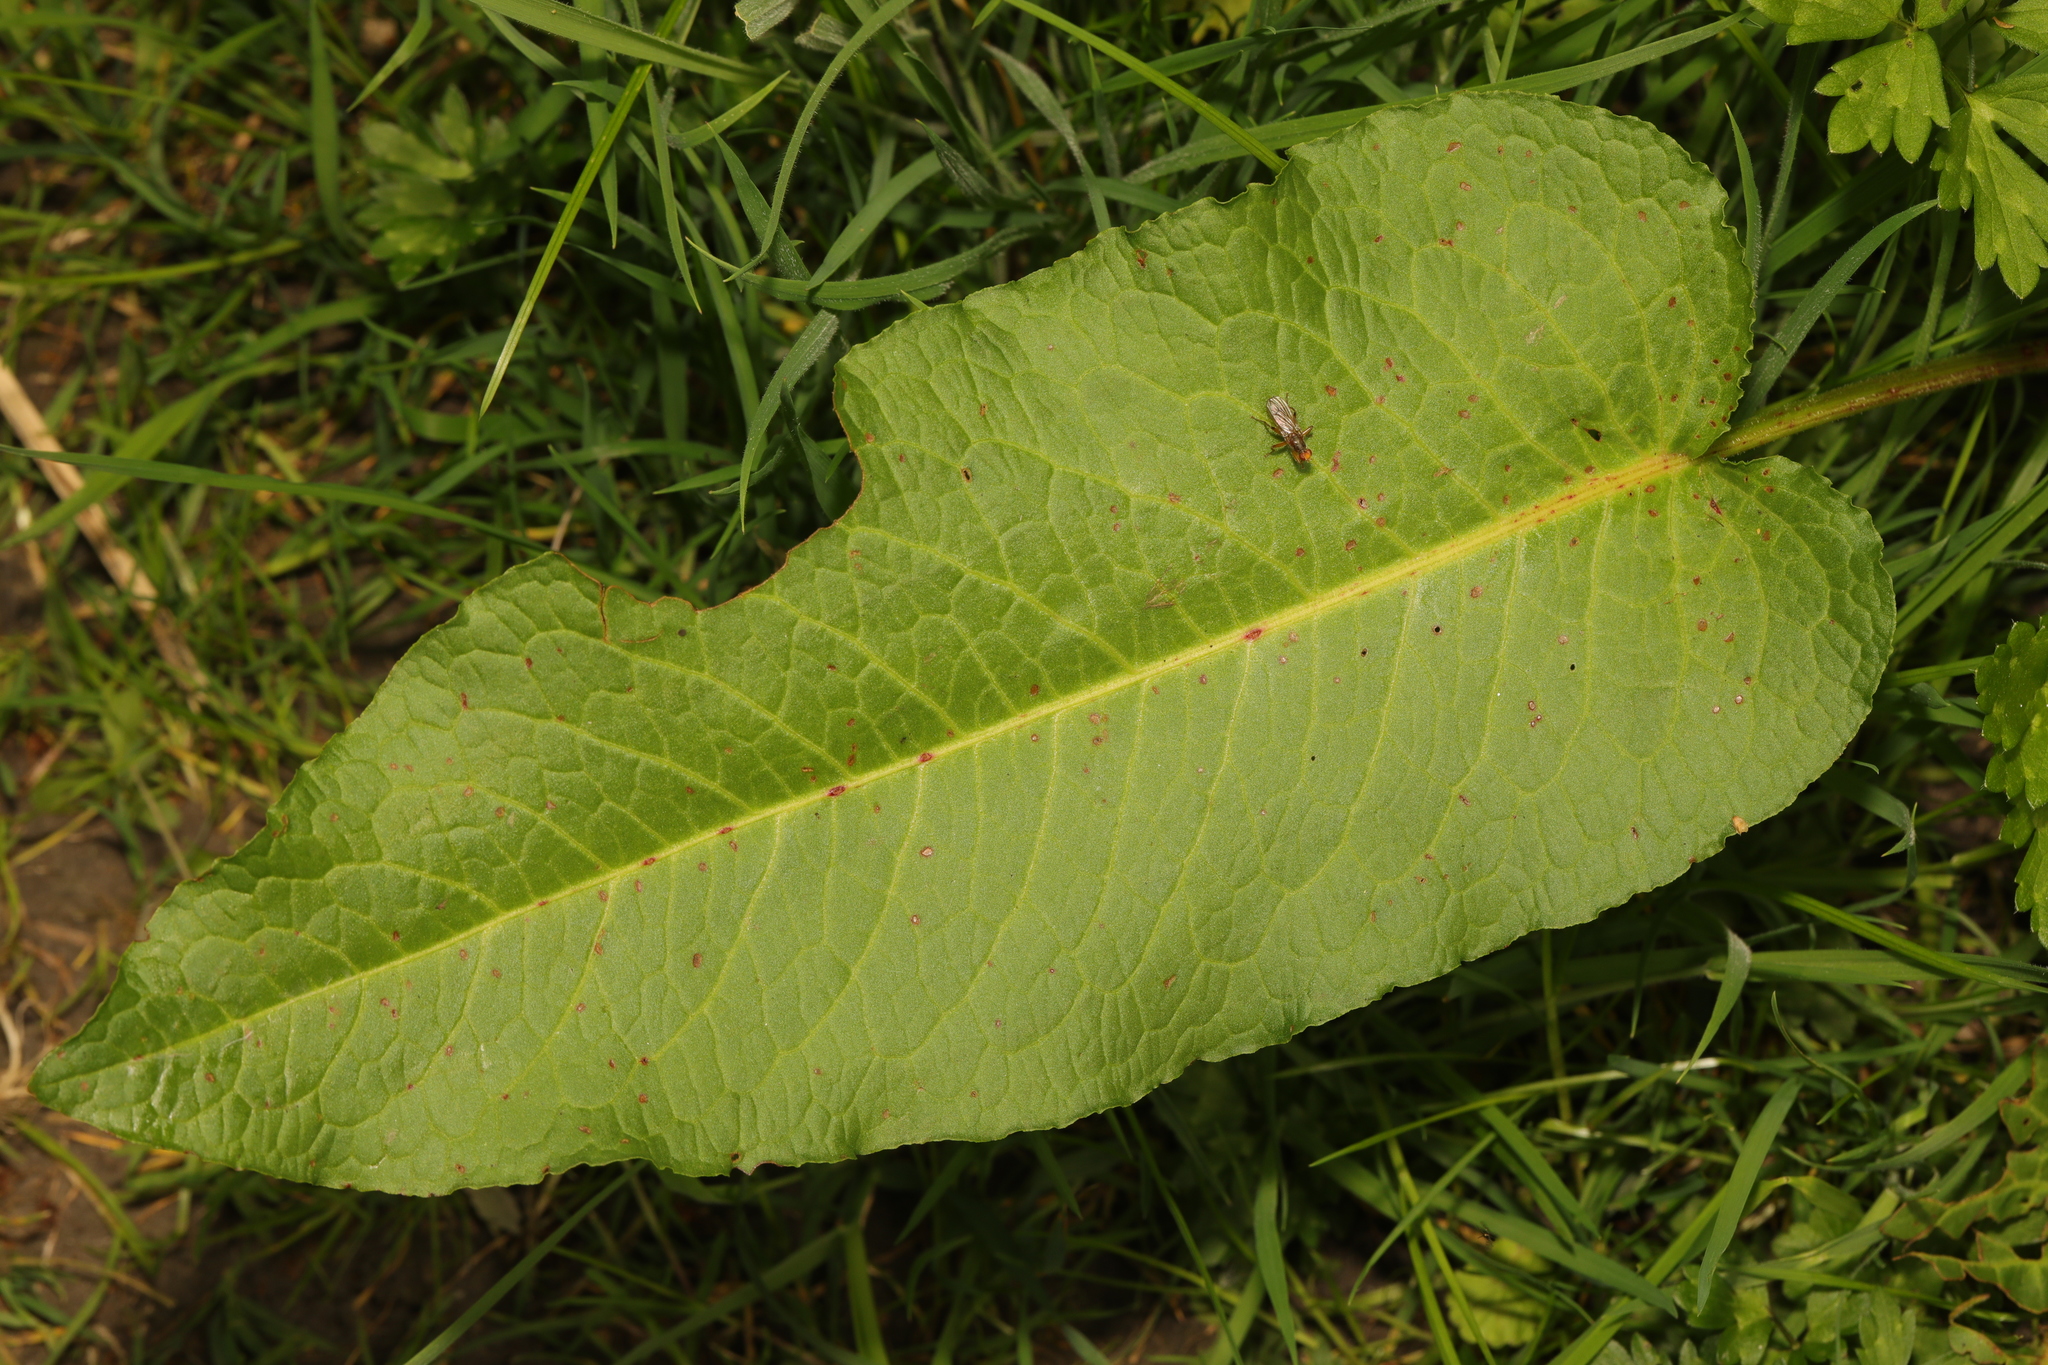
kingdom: Plantae
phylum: Tracheophyta
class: Magnoliopsida
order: Caryophyllales
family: Polygonaceae
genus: Rumex
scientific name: Rumex obtusifolius
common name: Bitter dock
